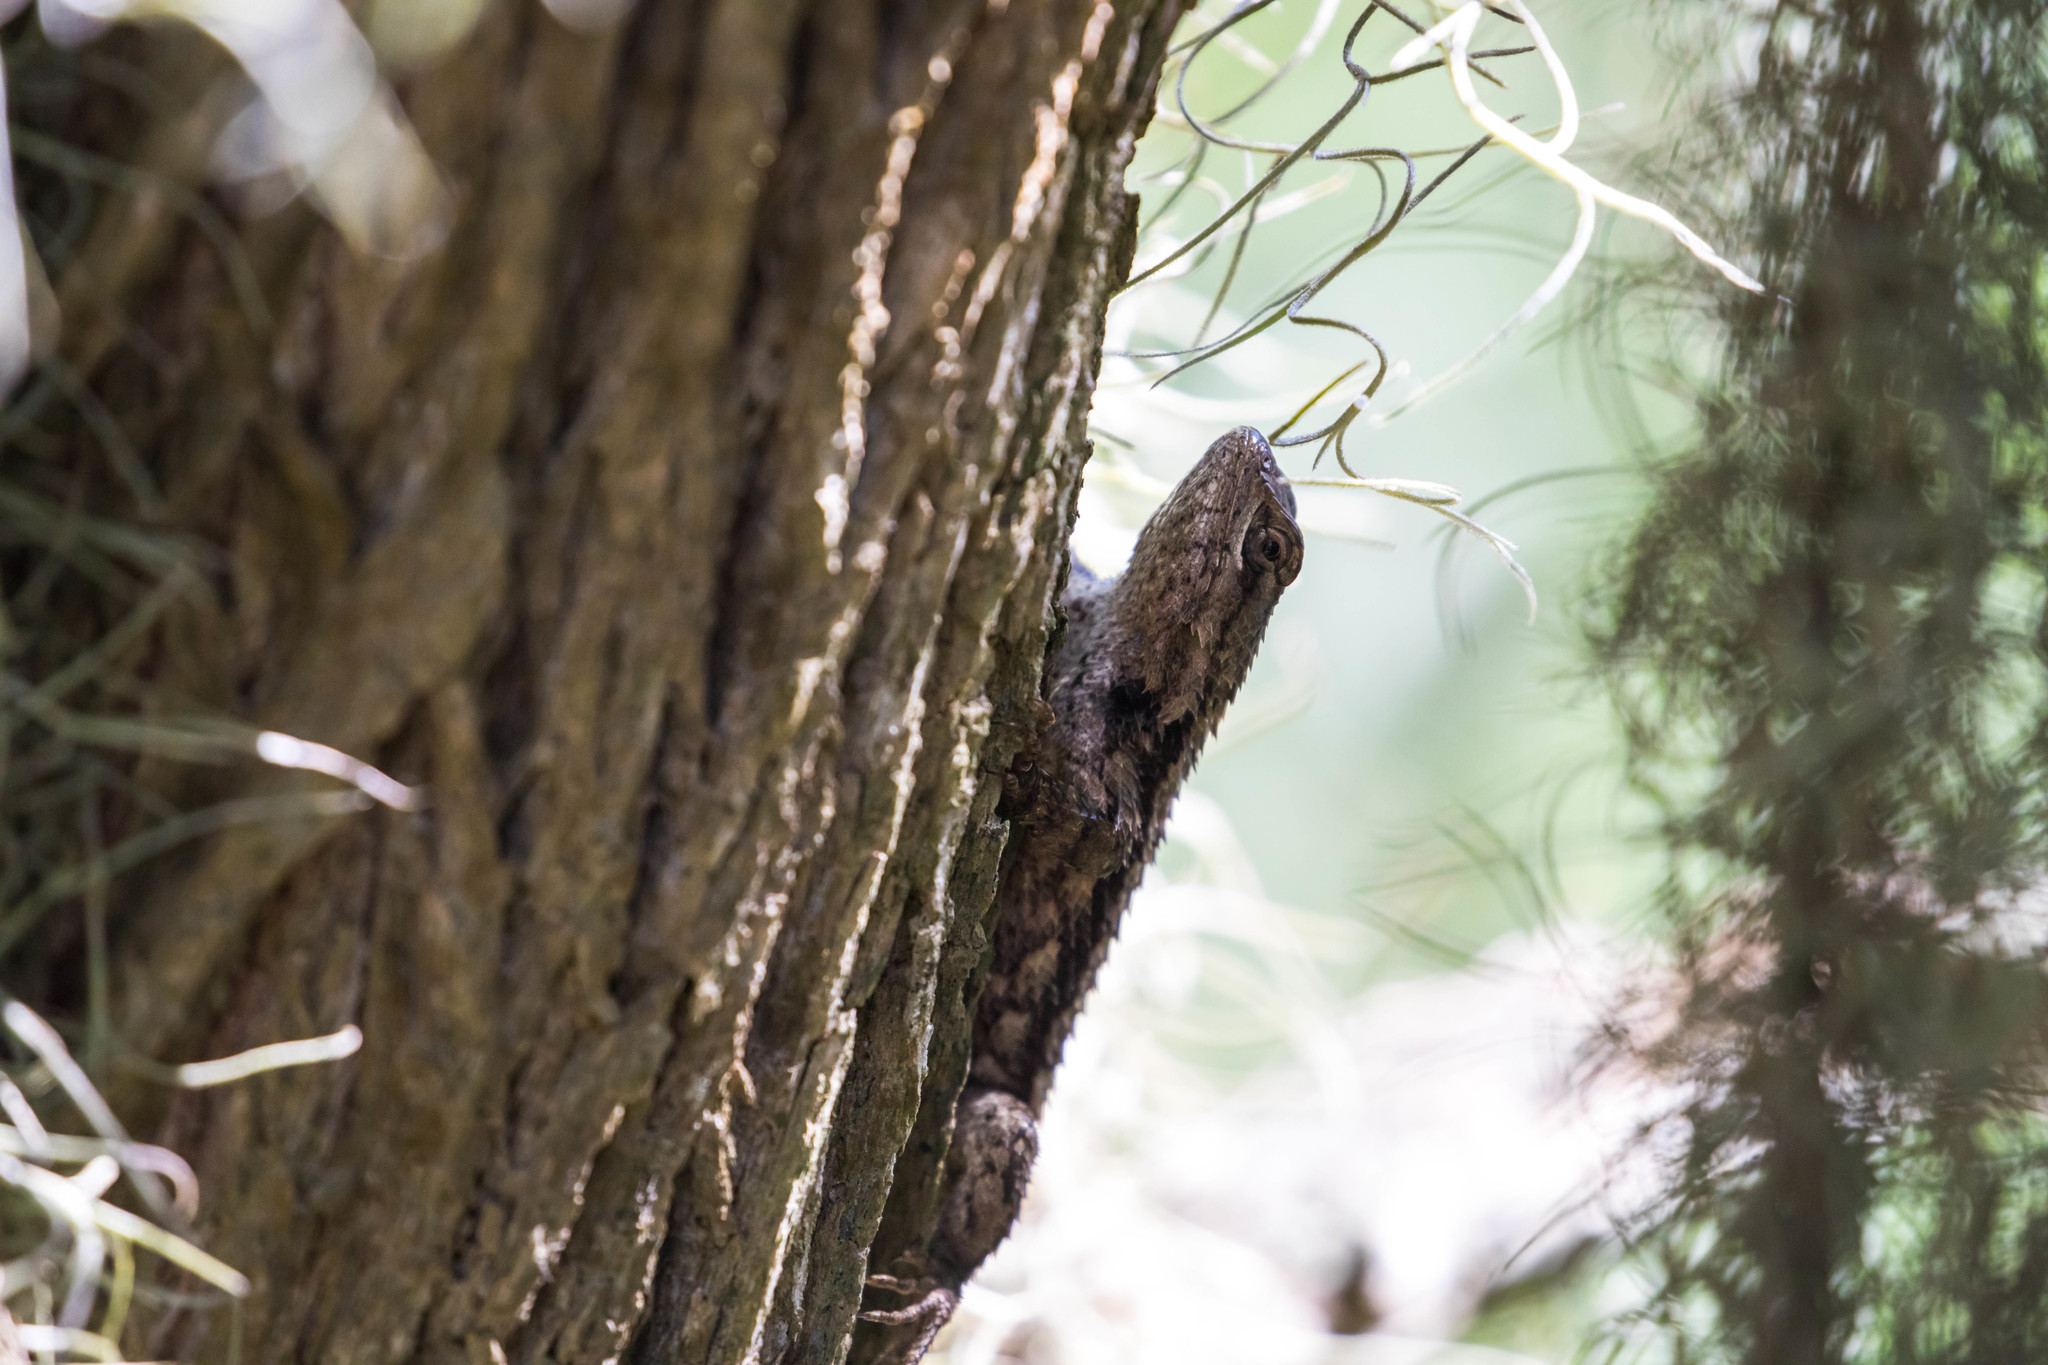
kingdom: Animalia
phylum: Chordata
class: Squamata
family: Phrynosomatidae
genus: Sceloporus
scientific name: Sceloporus olivaceus
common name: Texas spiny lizard
